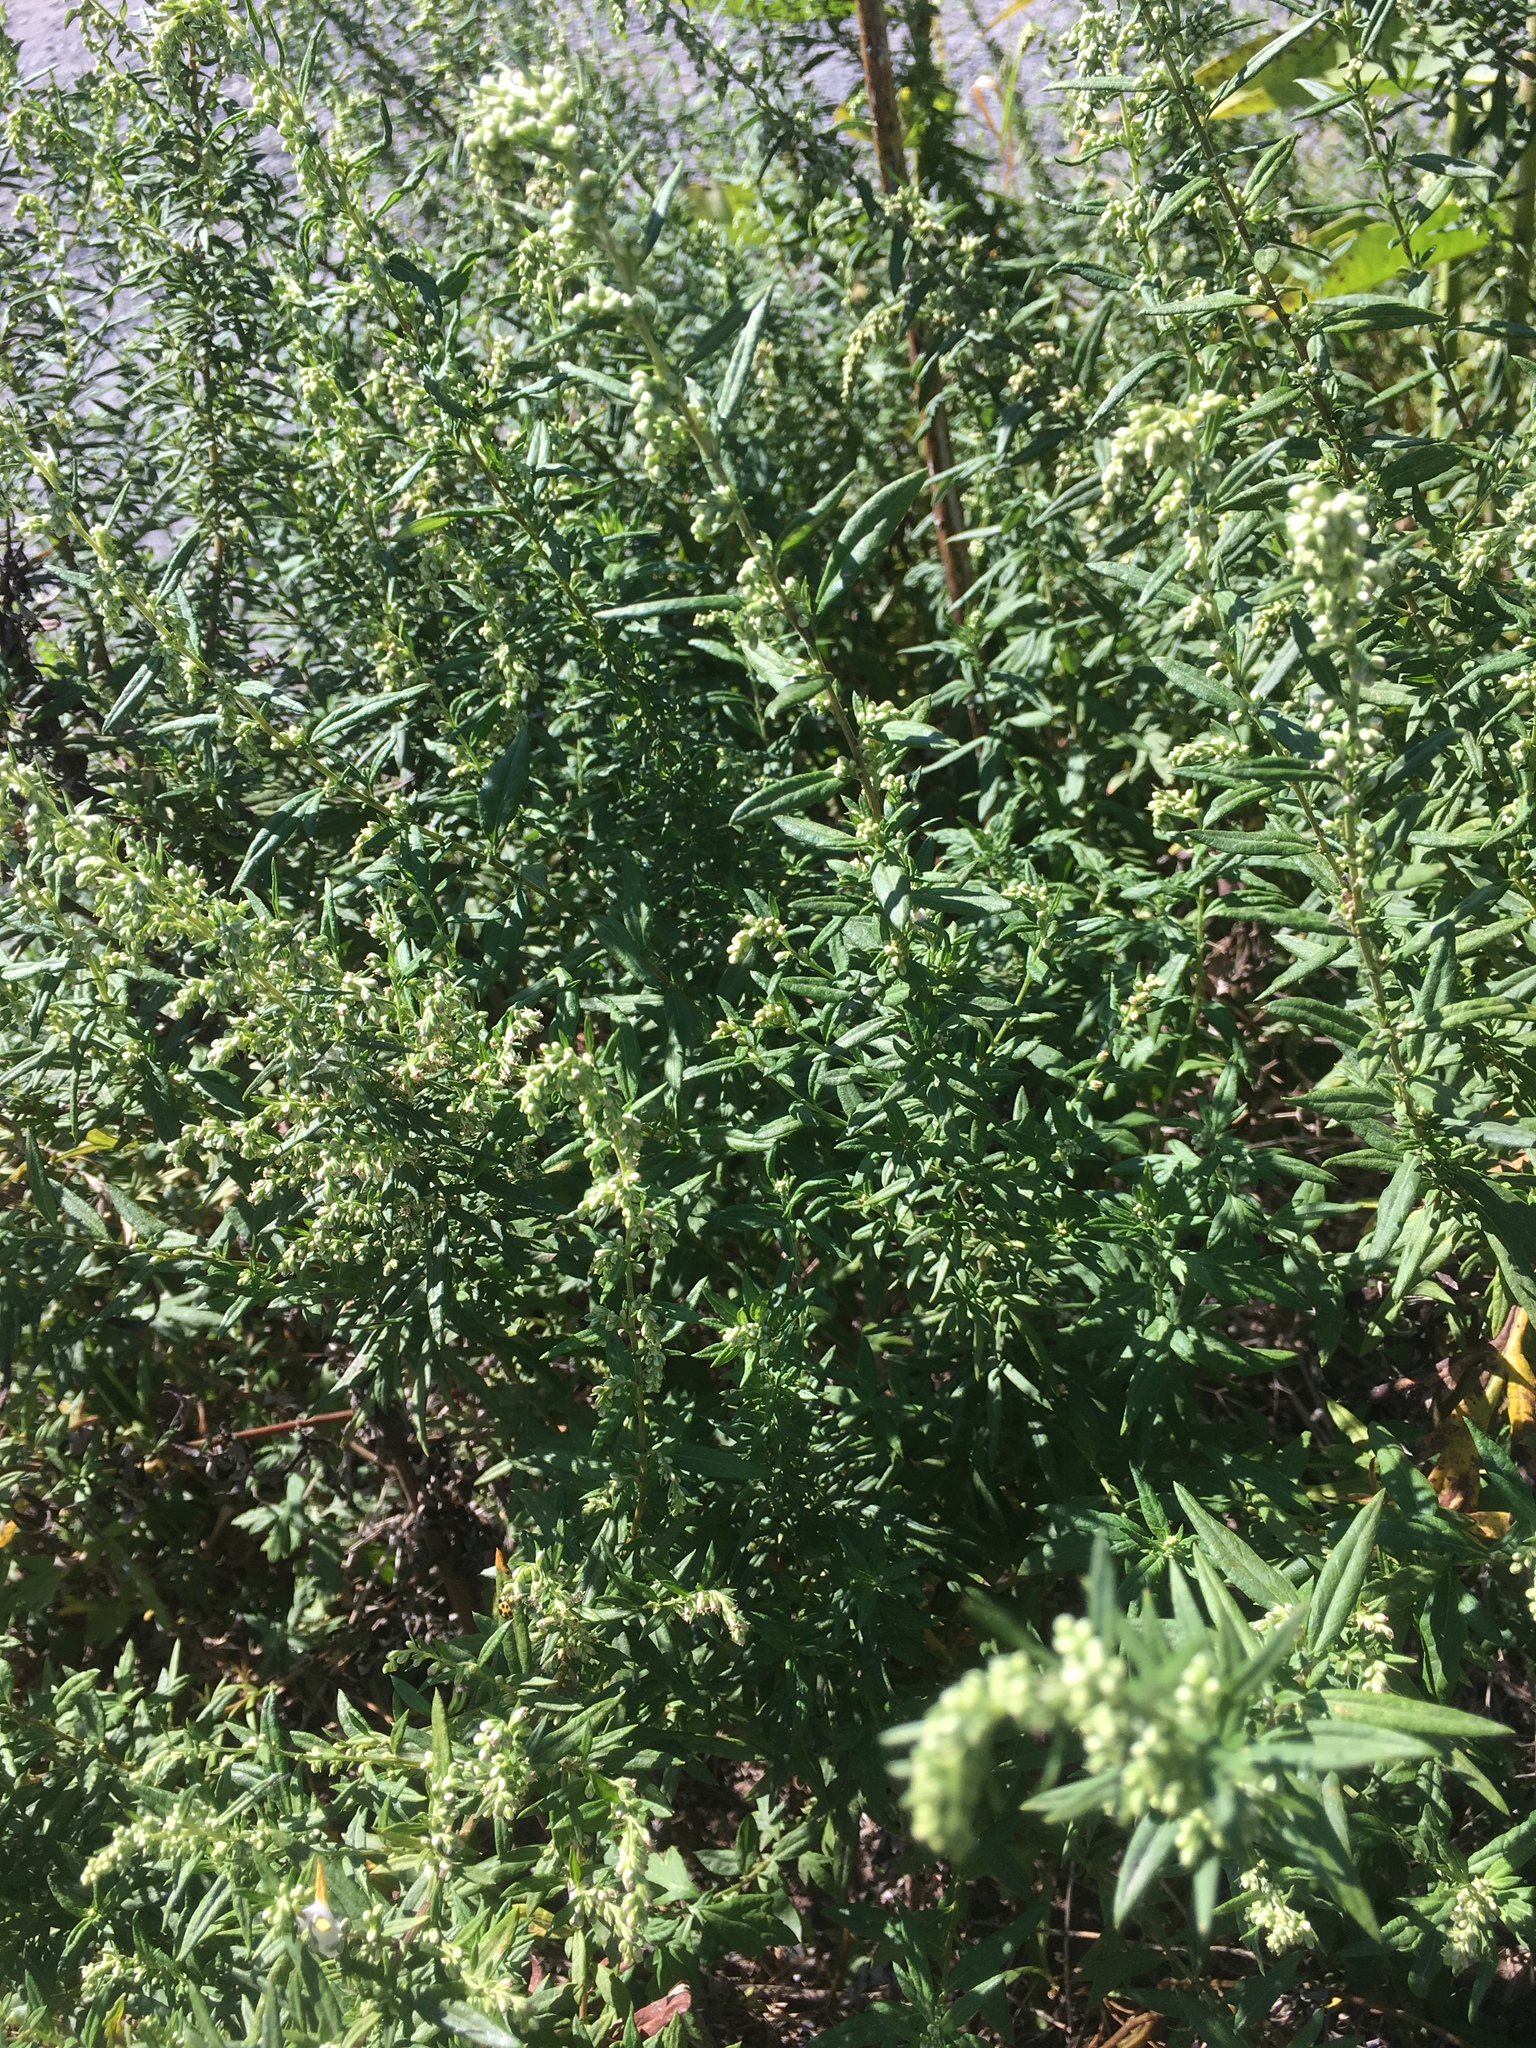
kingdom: Plantae
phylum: Tracheophyta
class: Magnoliopsida
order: Asterales
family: Asteraceae
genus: Artemisia
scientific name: Artemisia vulgaris
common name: Mugwort
